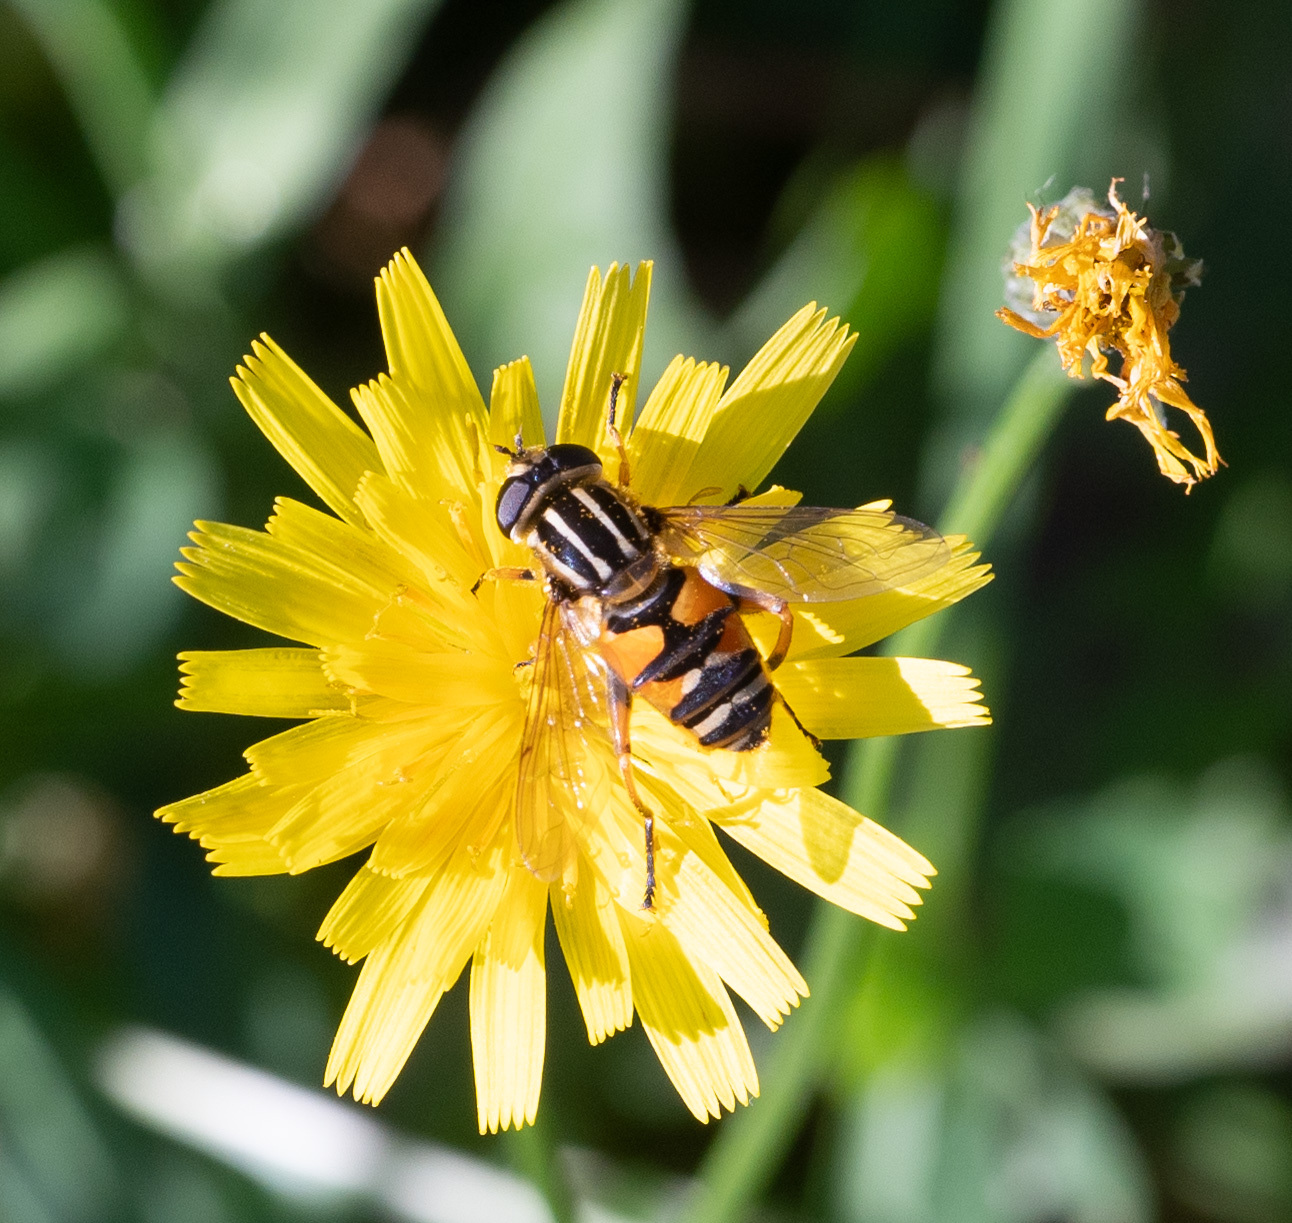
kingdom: Animalia
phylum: Arthropoda
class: Insecta
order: Diptera
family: Syrphidae
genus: Helophilus
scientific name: Helophilus pendulus
